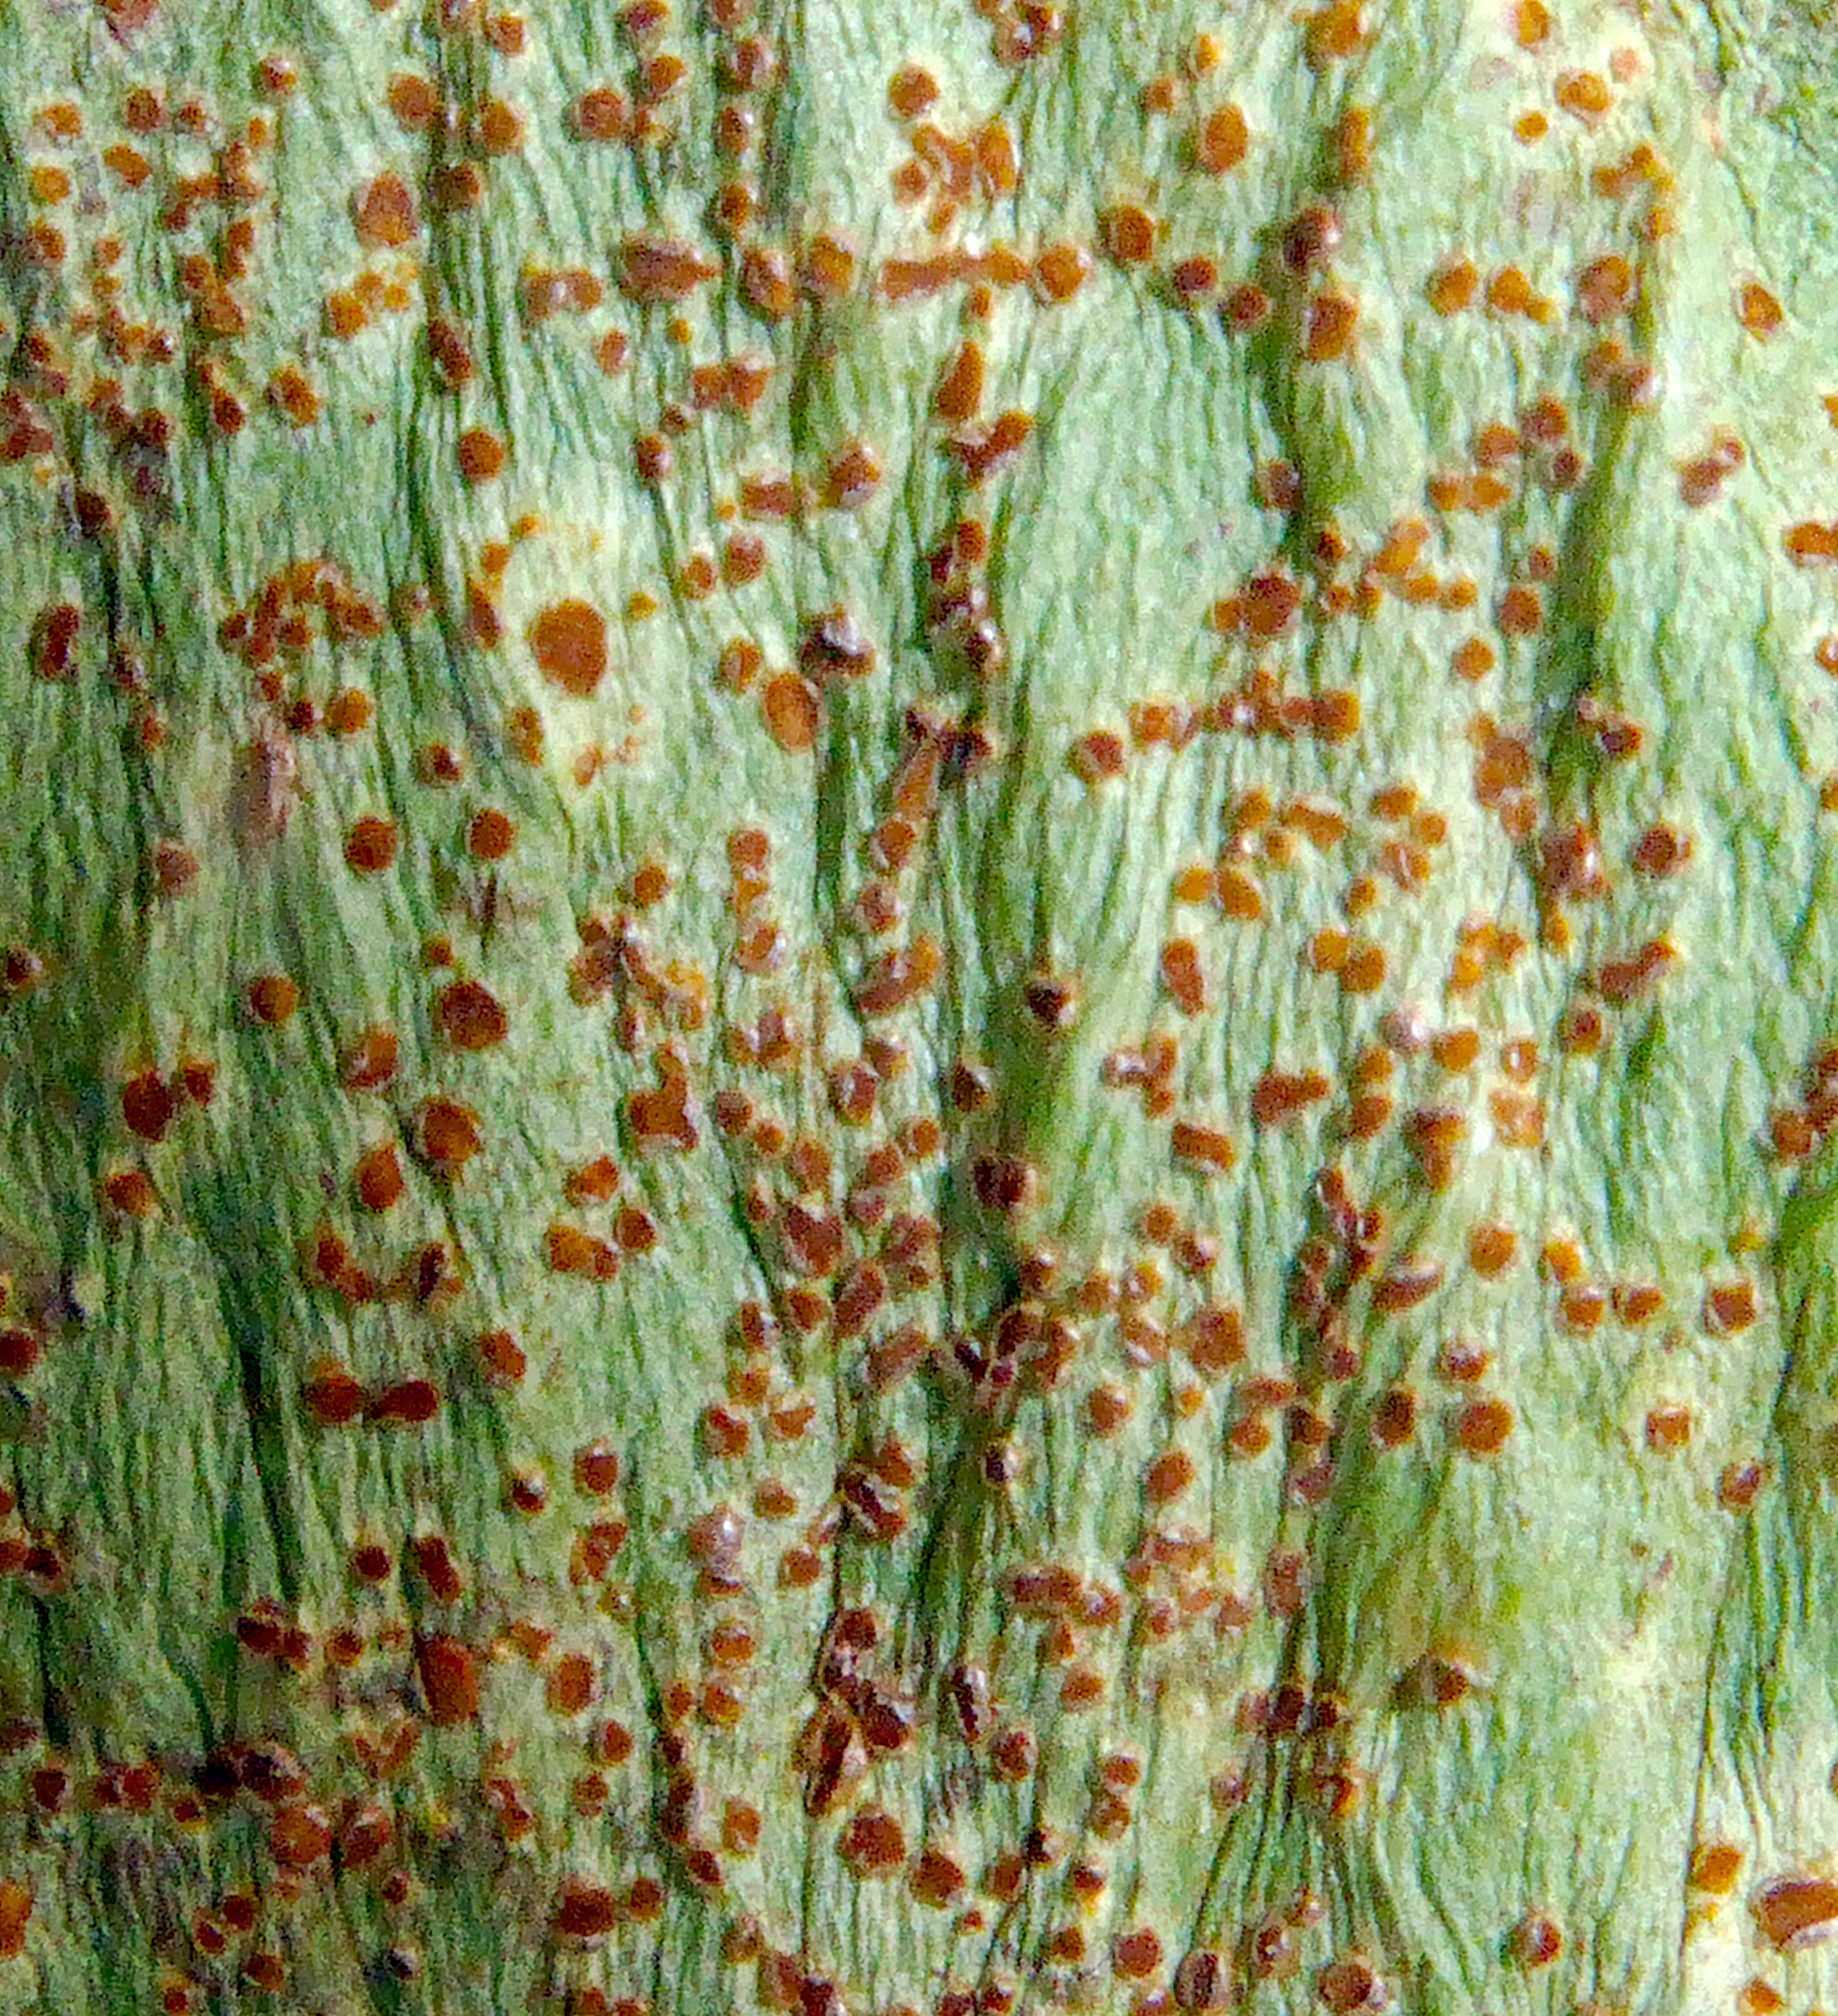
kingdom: Fungi
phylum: Basidiomycota
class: Pucciniomycetes
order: Pucciniales
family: Pucciniaceae
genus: Uromyces
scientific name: Uromyces viciae-fabae
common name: Broad bean rust
